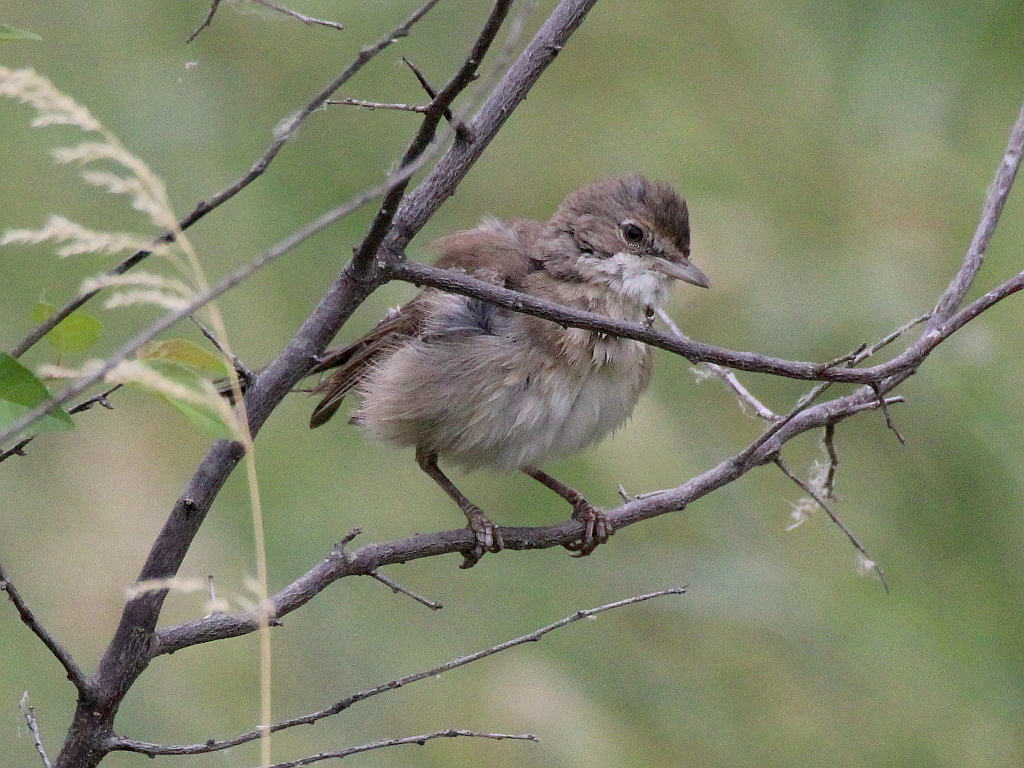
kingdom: Animalia
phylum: Chordata
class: Aves
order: Passeriformes
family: Sylviidae
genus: Sylvia
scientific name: Sylvia communis
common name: Common whitethroat
